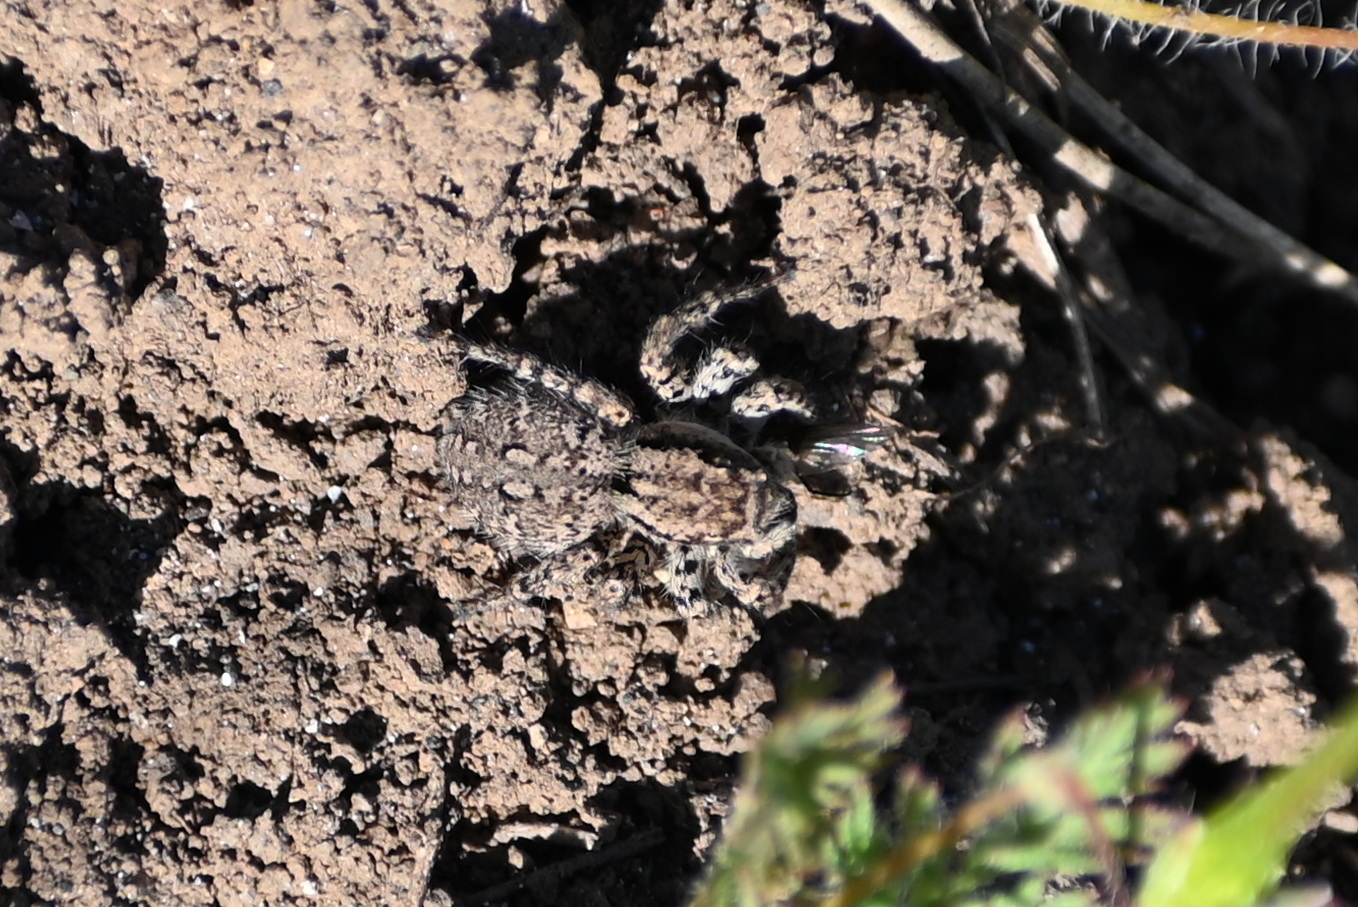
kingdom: Animalia
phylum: Arthropoda
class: Arachnida
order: Araneae
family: Salticidae
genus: Asianellus
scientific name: Asianellus festivus
